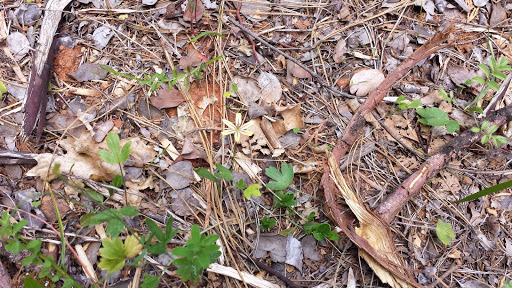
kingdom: Plantae
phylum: Tracheophyta
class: Liliopsida
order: Asparagales
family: Asparagaceae
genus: Triteleia
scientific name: Triteleia ixioides
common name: Yellow-brodiaea
